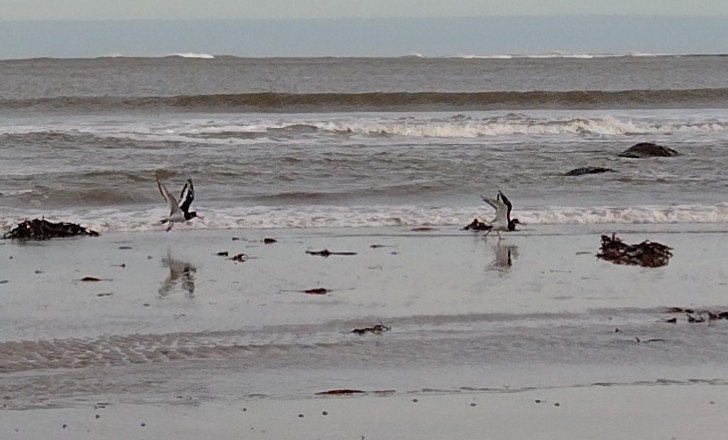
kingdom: Animalia
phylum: Chordata
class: Aves
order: Charadriiformes
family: Haematopodidae
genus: Haematopus
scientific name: Haematopus ostralegus
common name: Eurasian oystercatcher
